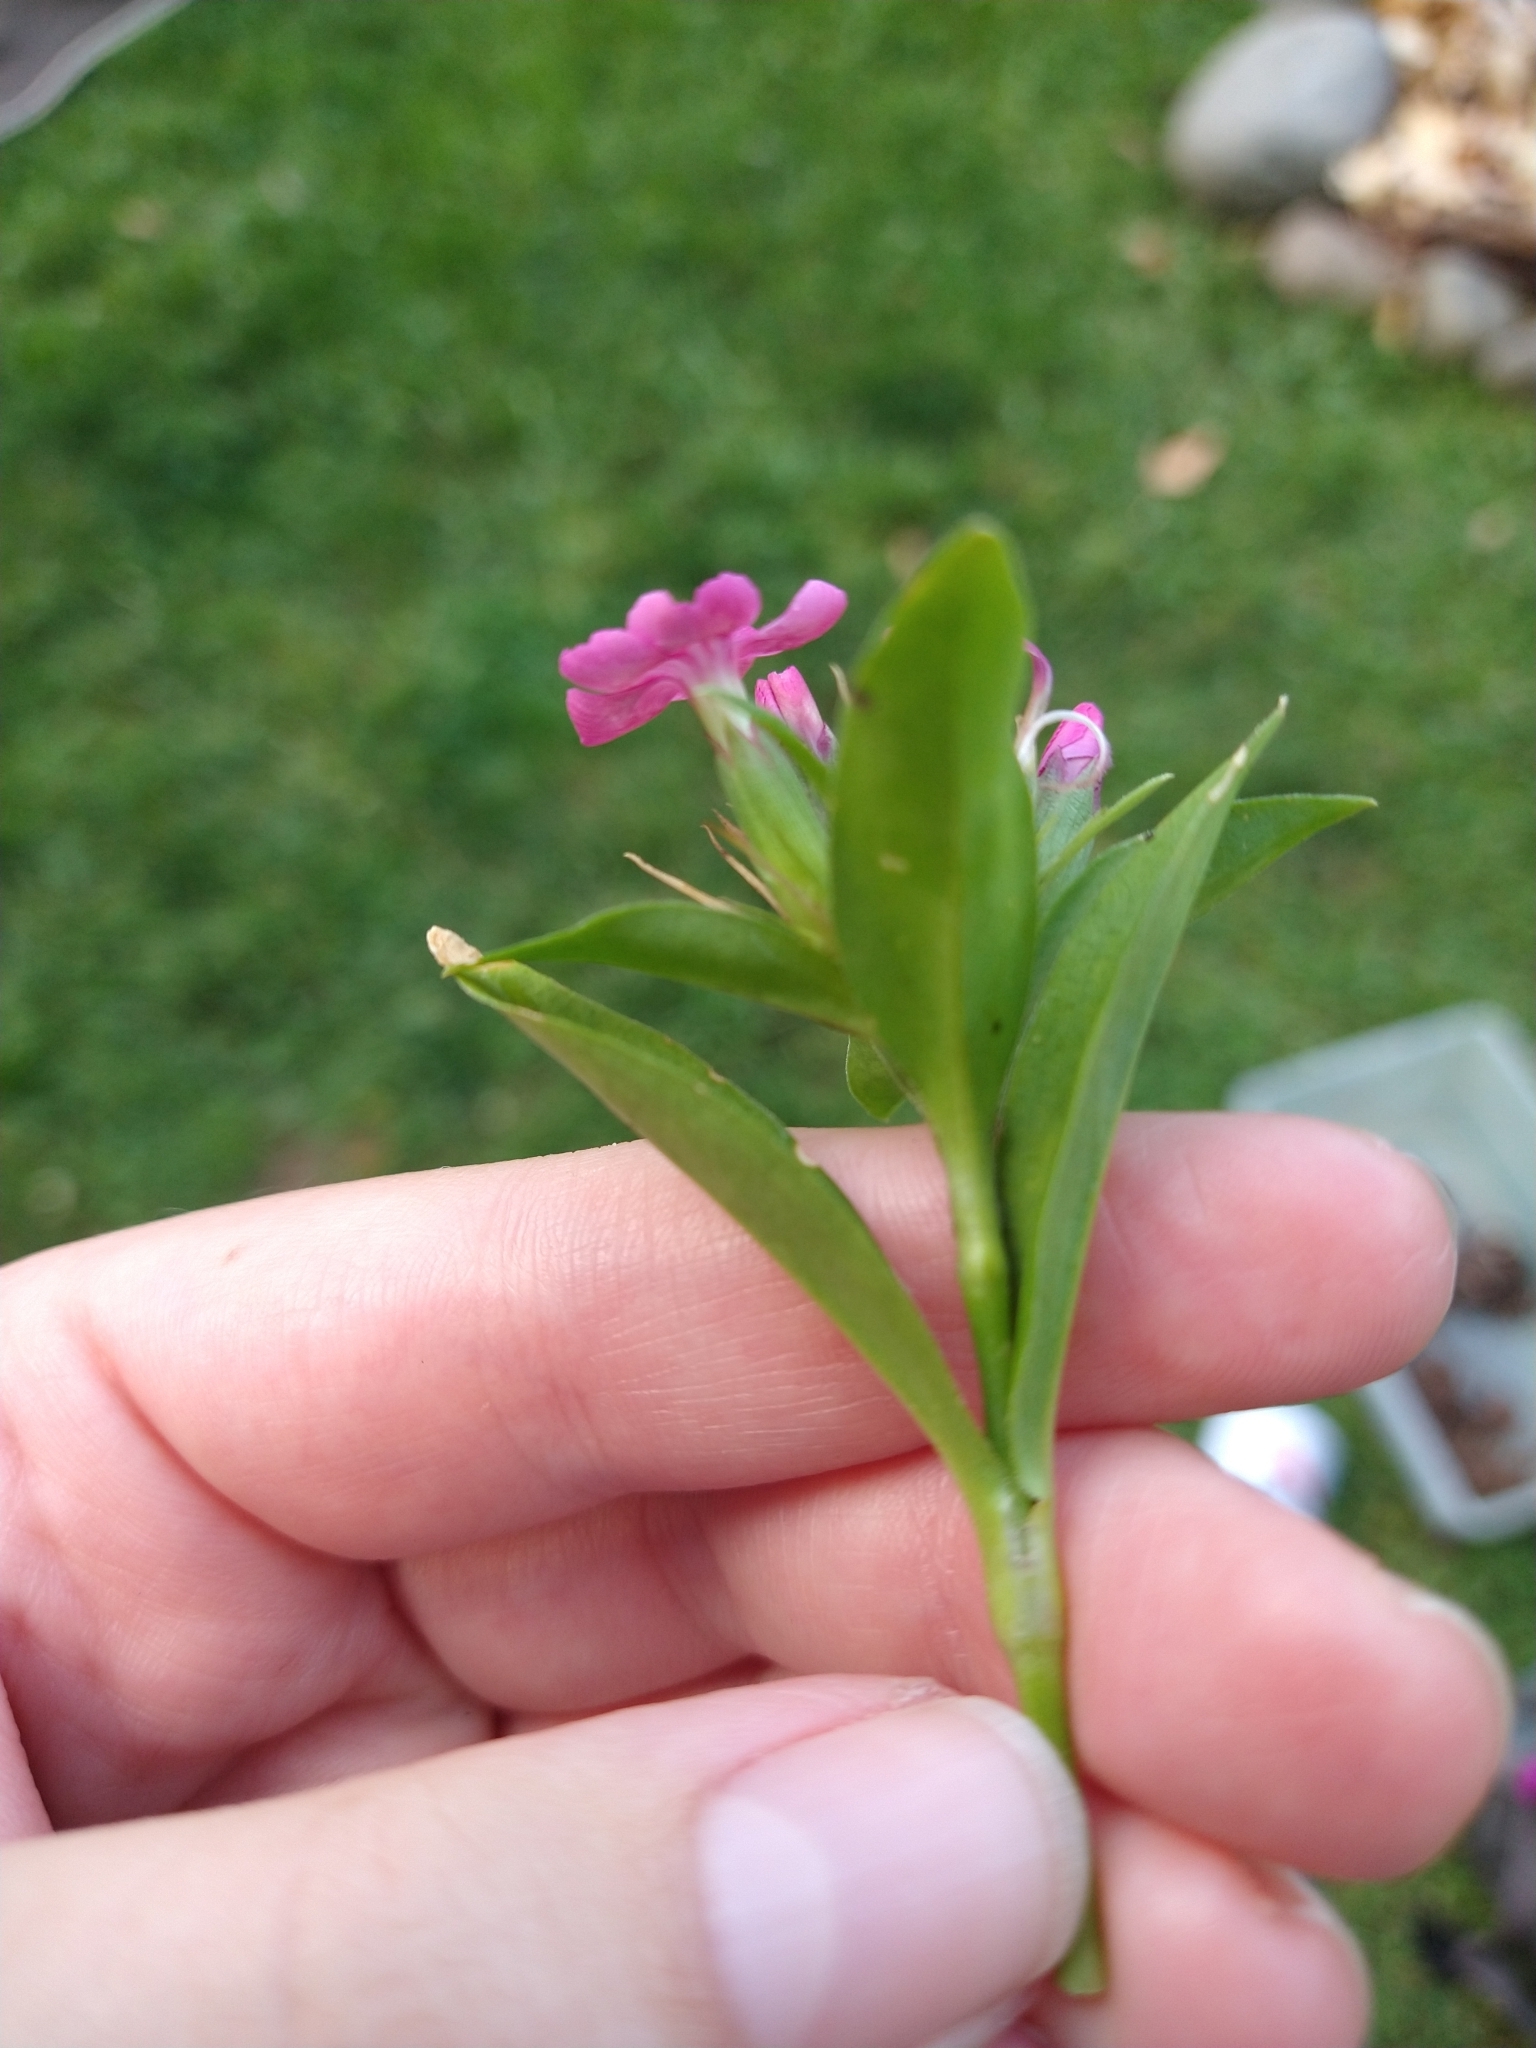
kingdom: Plantae
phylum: Tracheophyta
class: Magnoliopsida
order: Caryophyllales
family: Caryophyllaceae
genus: Dianthus
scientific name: Dianthus barbatus
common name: Sweet-william
